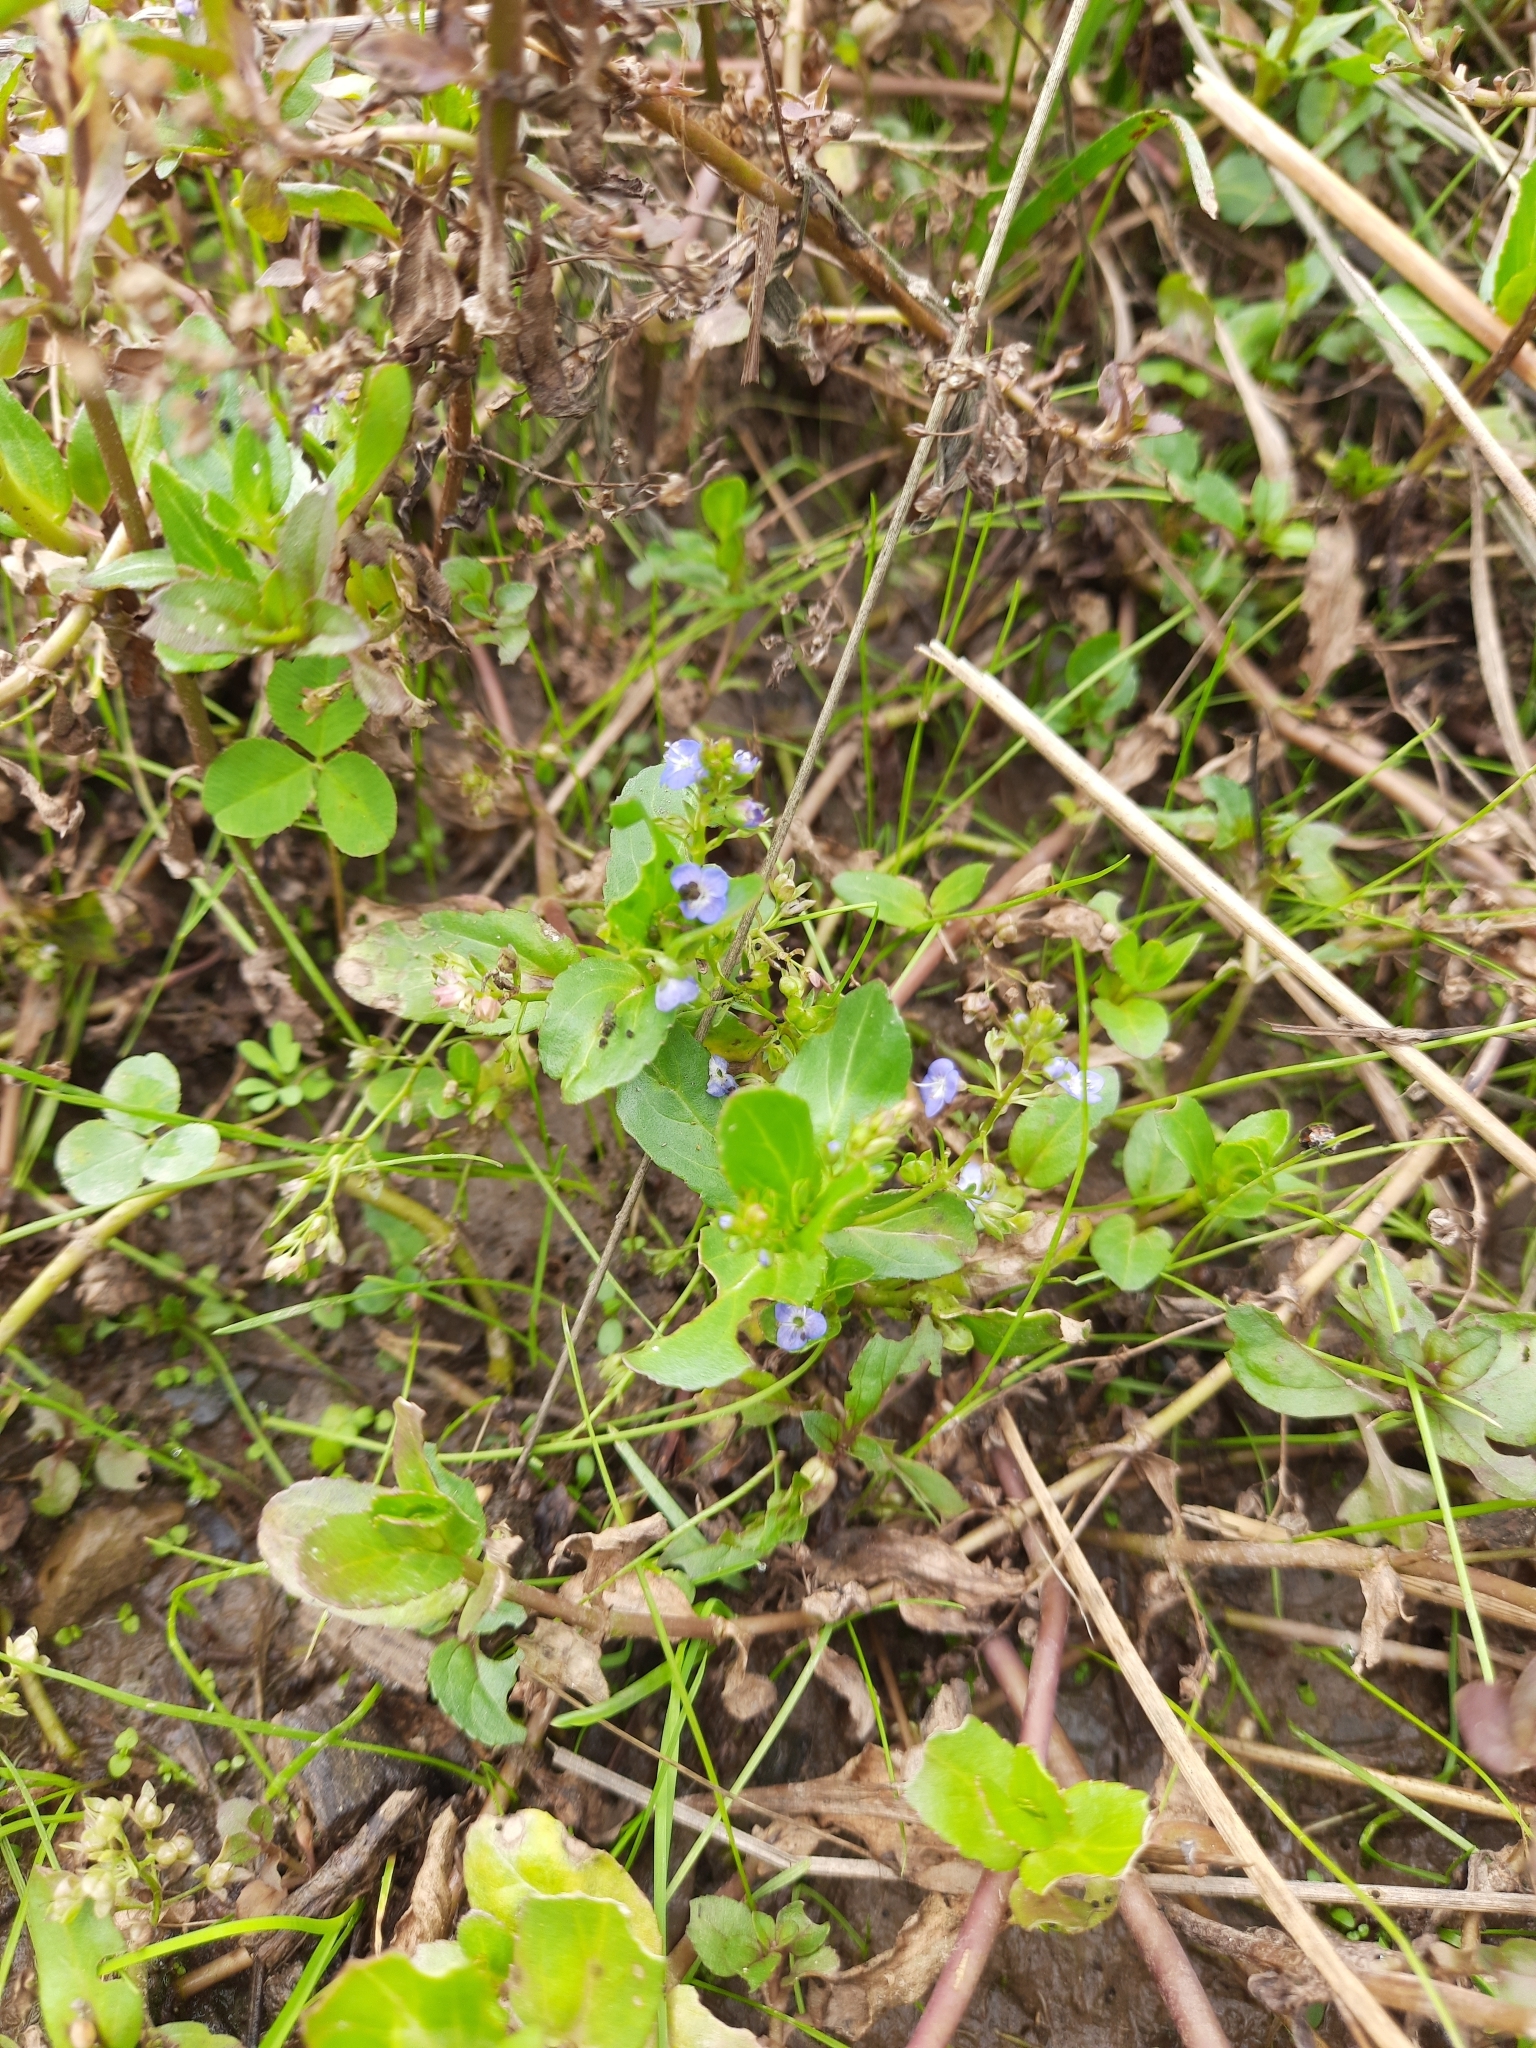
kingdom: Plantae
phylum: Tracheophyta
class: Magnoliopsida
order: Lamiales
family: Plantaginaceae
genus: Veronica
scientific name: Veronica beccabunga
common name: Brooklime
